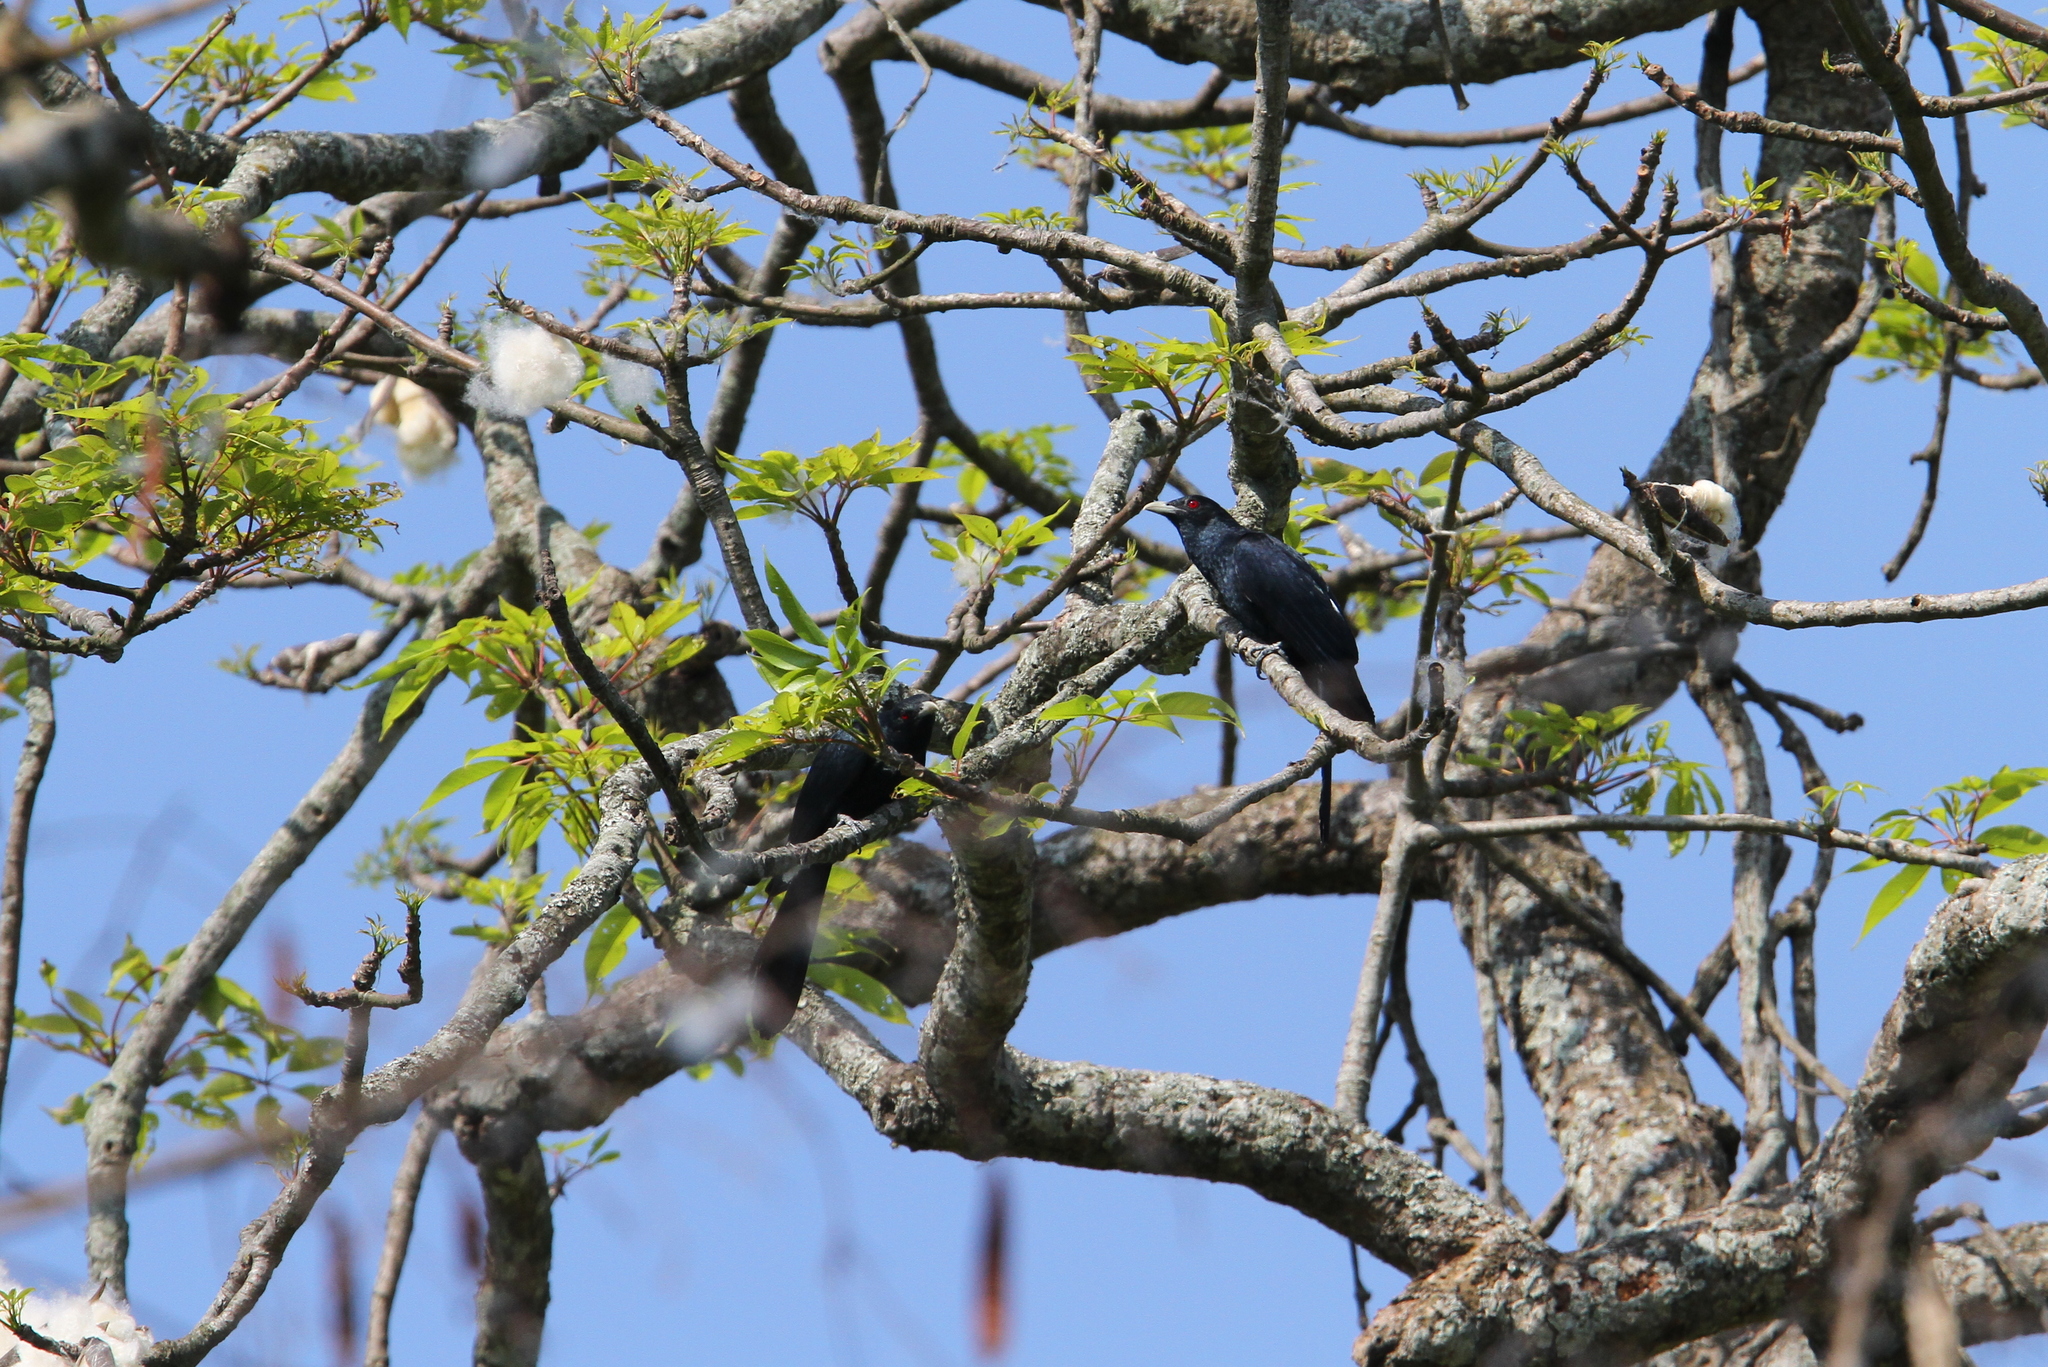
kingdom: Animalia
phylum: Chordata
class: Aves
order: Cuculiformes
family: Cuculidae
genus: Eudynamys
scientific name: Eudynamys scolopaceus
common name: Asian koel
